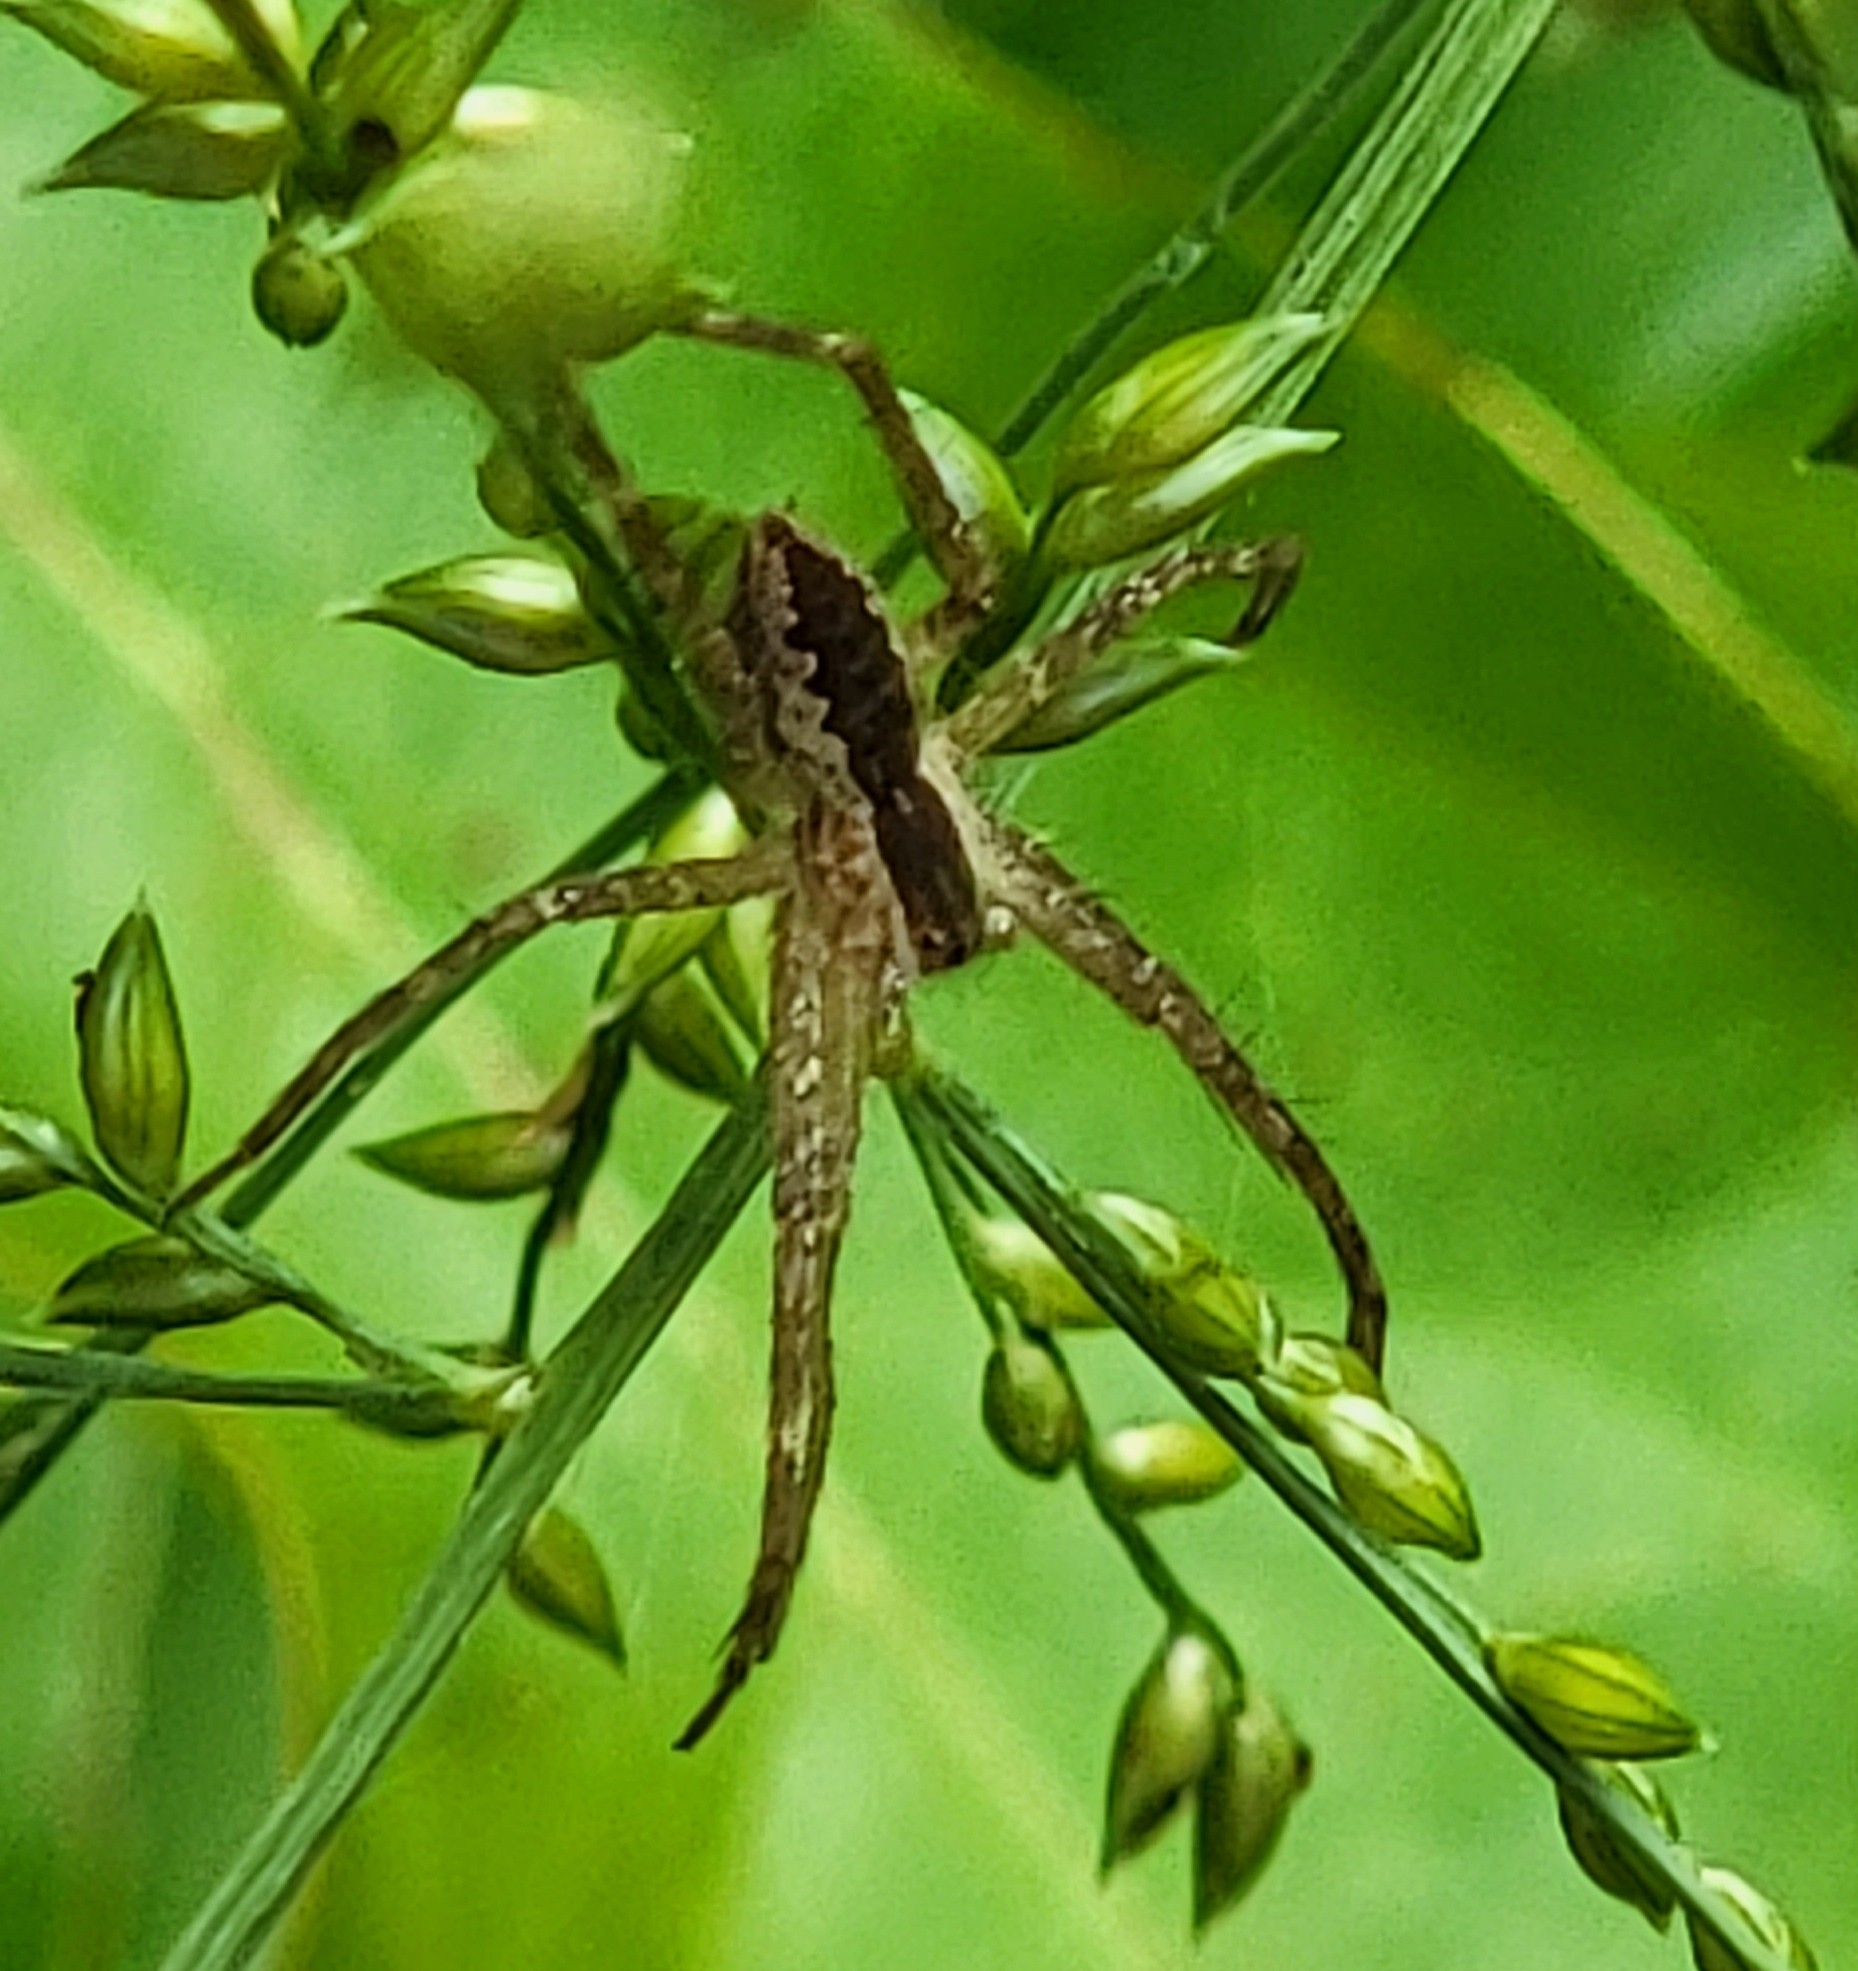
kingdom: Animalia
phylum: Arthropoda
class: Arachnida
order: Araneae
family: Pisauridae
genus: Pisaurina
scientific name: Pisaurina mira
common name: American nursery web spider
